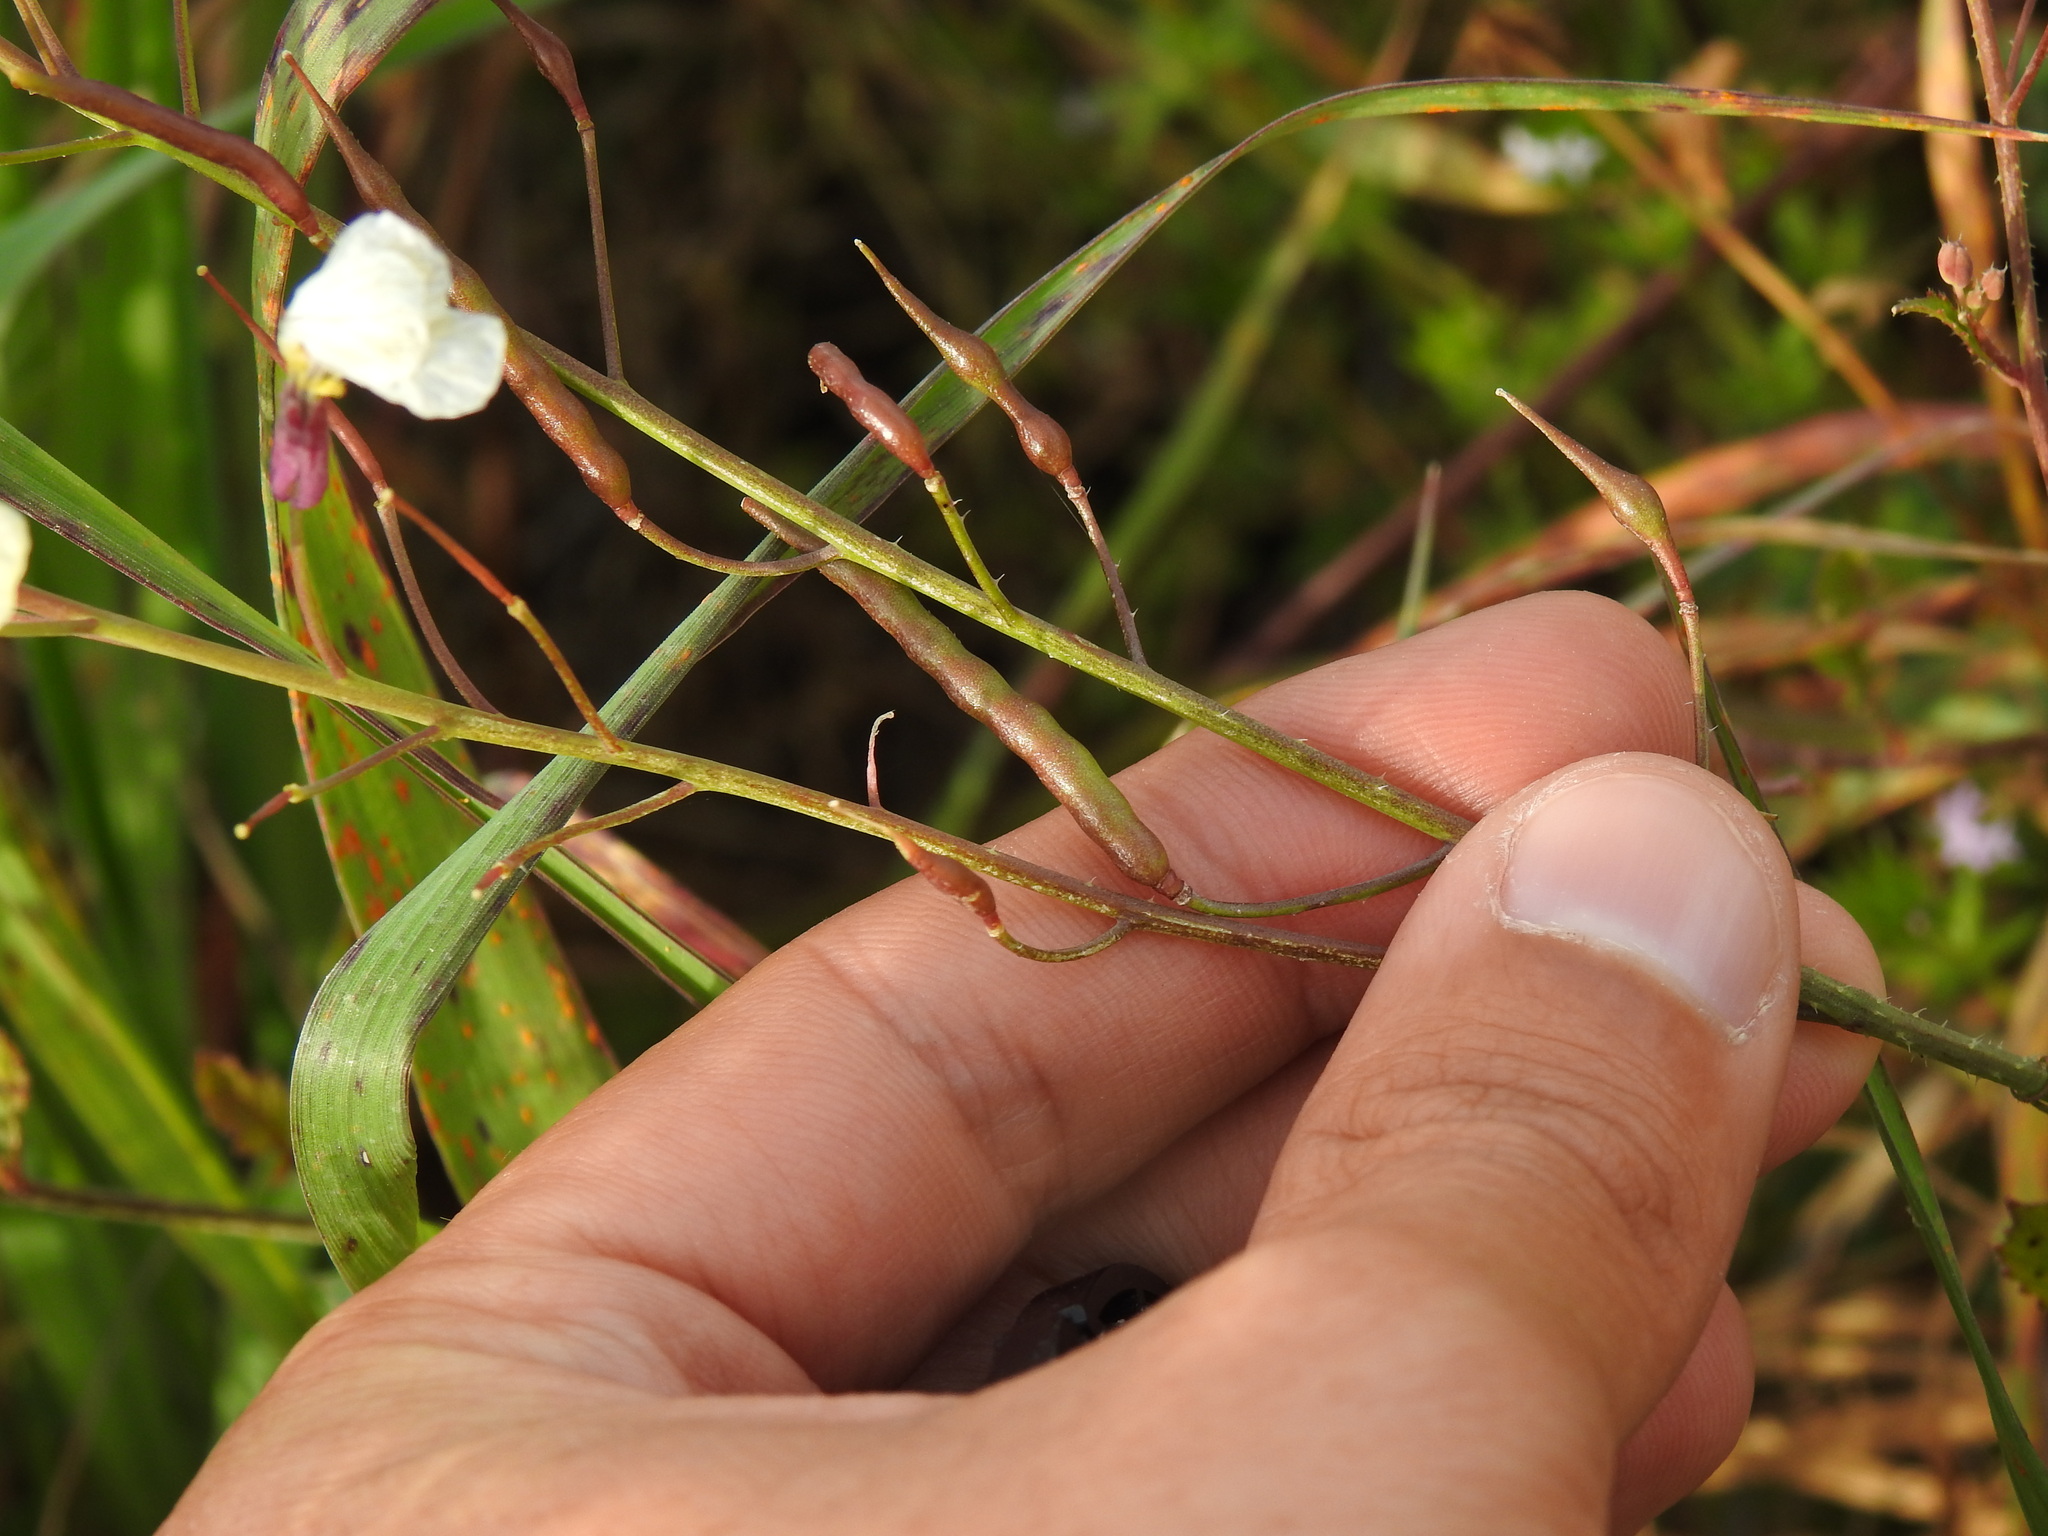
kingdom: Plantae
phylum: Tracheophyta
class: Magnoliopsida
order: Brassicales
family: Brassicaceae
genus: Raphanus
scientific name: Raphanus raphanistrum
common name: Wild radish
